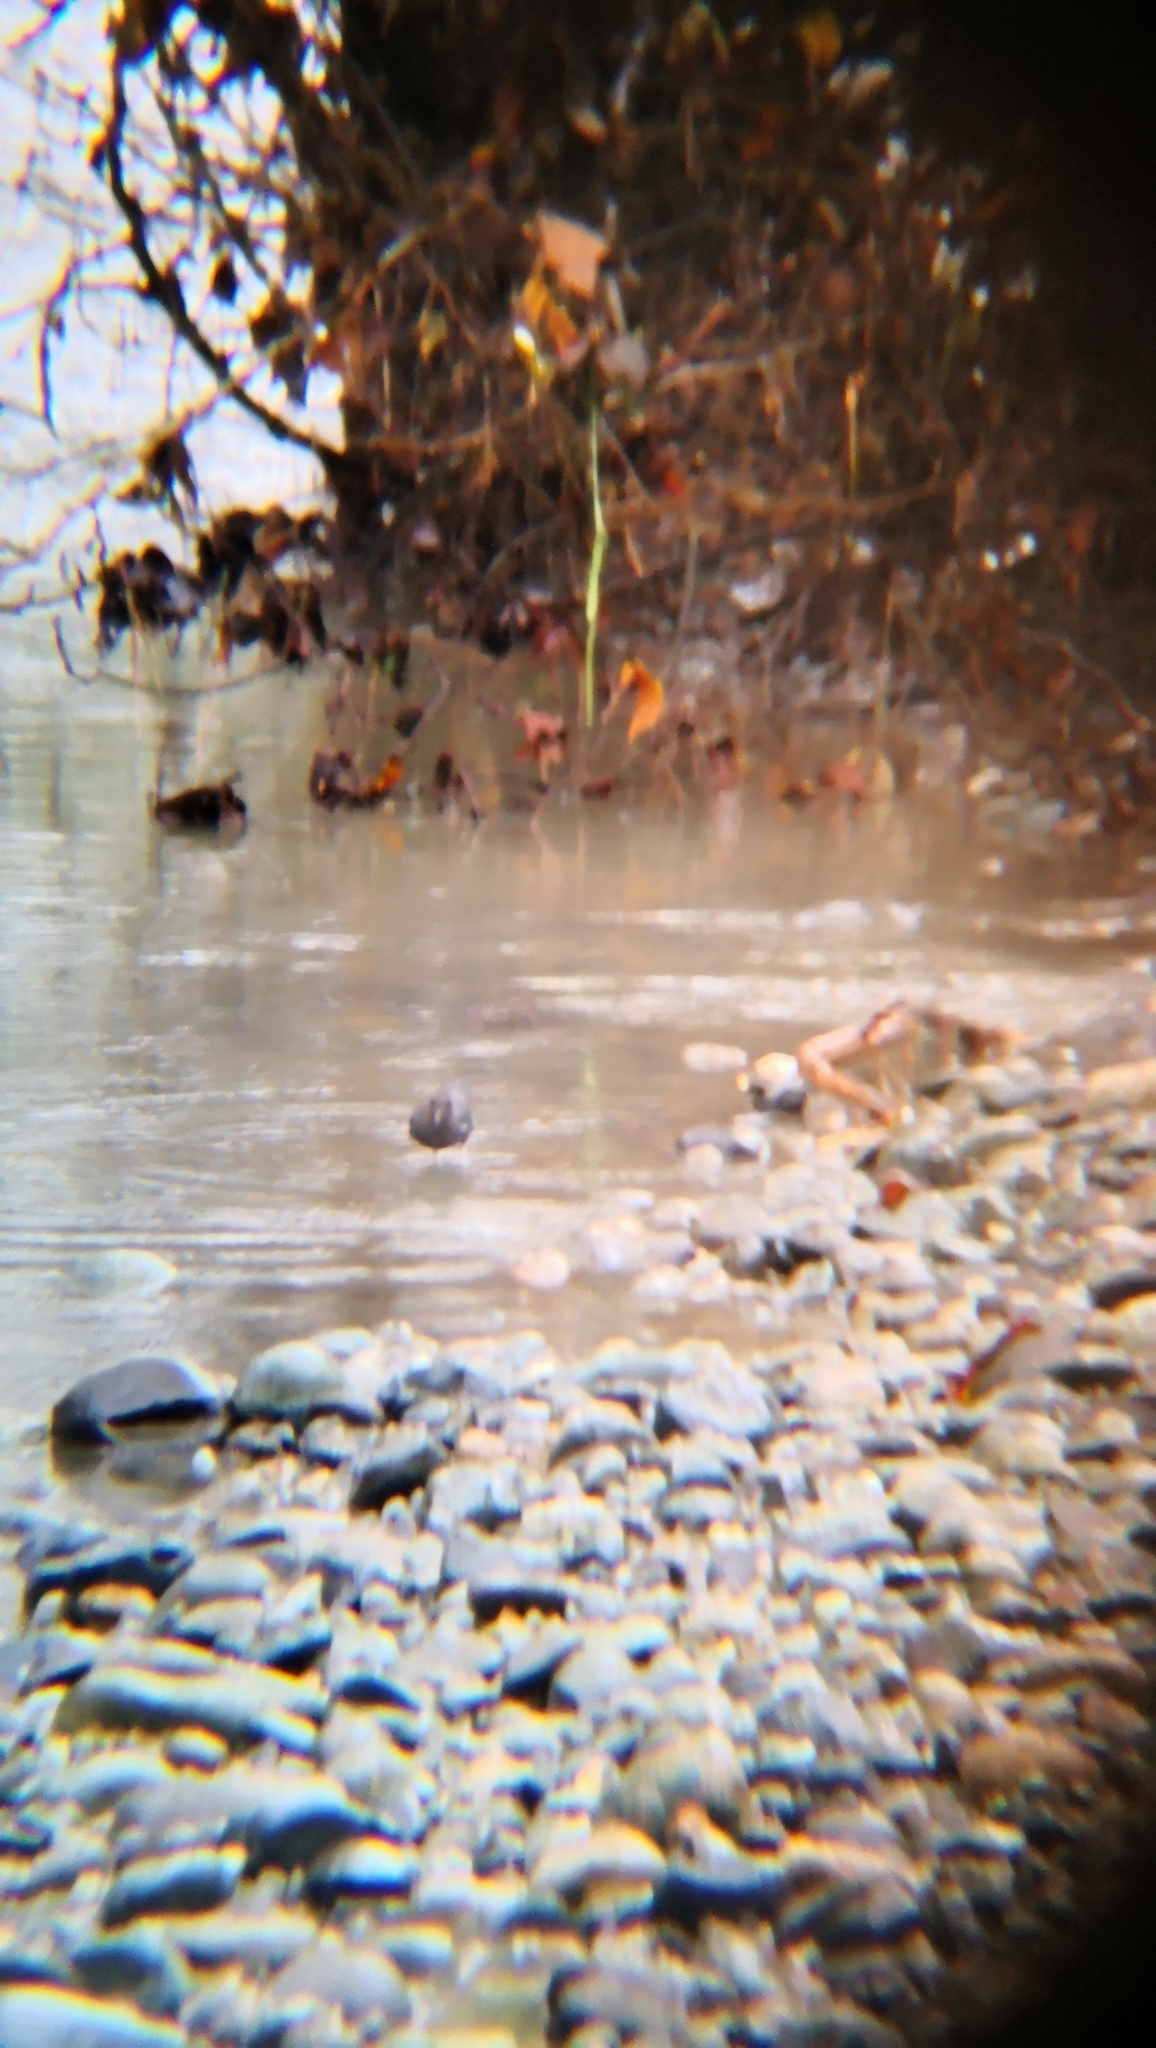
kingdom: Animalia
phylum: Chordata
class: Aves
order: Passeriformes
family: Cinclidae
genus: Cinclus
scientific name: Cinclus mexicanus
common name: American dipper
